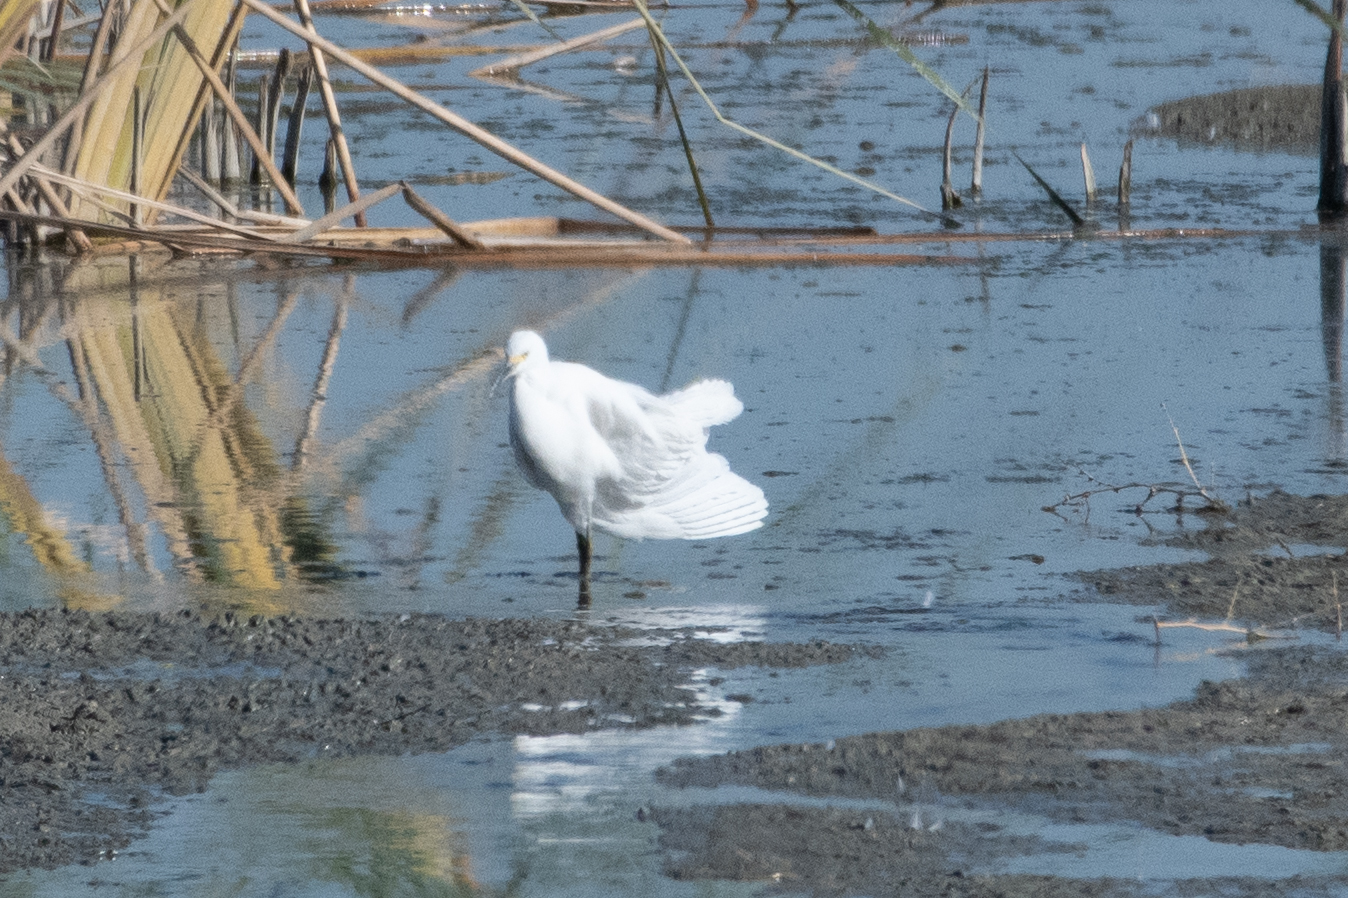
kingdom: Animalia
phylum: Chordata
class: Aves
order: Pelecaniformes
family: Ardeidae
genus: Egretta
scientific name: Egretta thula
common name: Snowy egret
